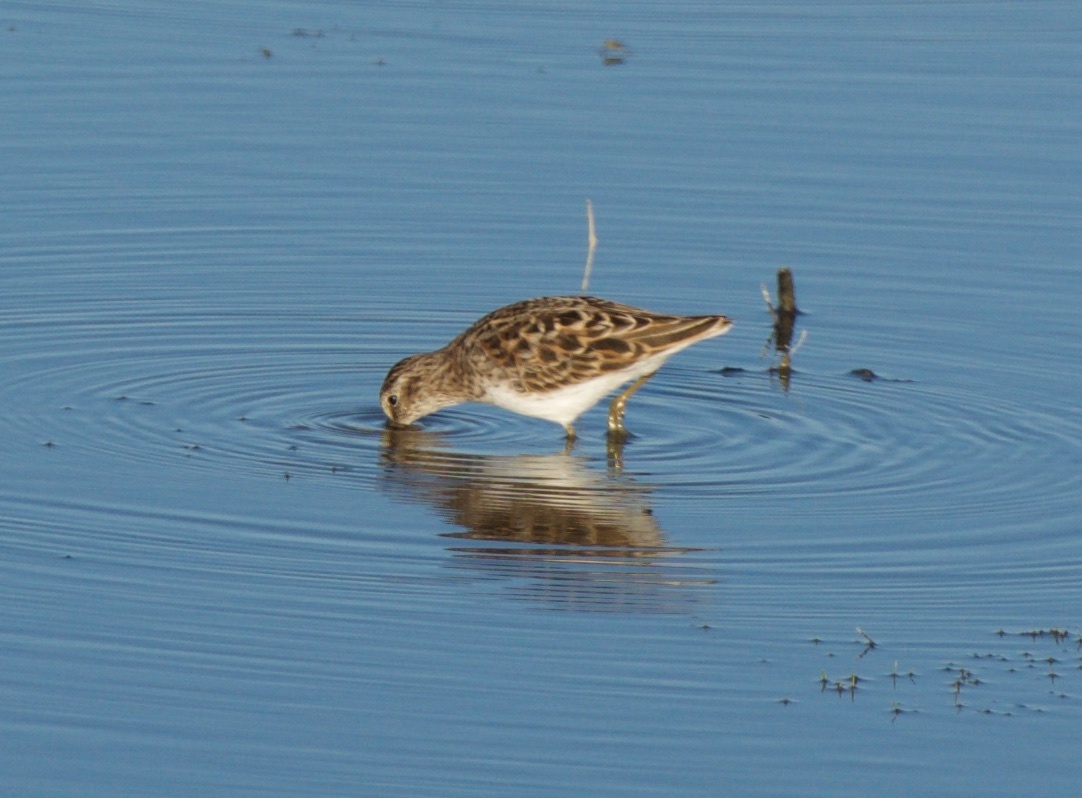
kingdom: Animalia
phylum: Chordata
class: Aves
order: Charadriiformes
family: Scolopacidae
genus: Calidris
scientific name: Calidris minutilla
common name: Least sandpiper
